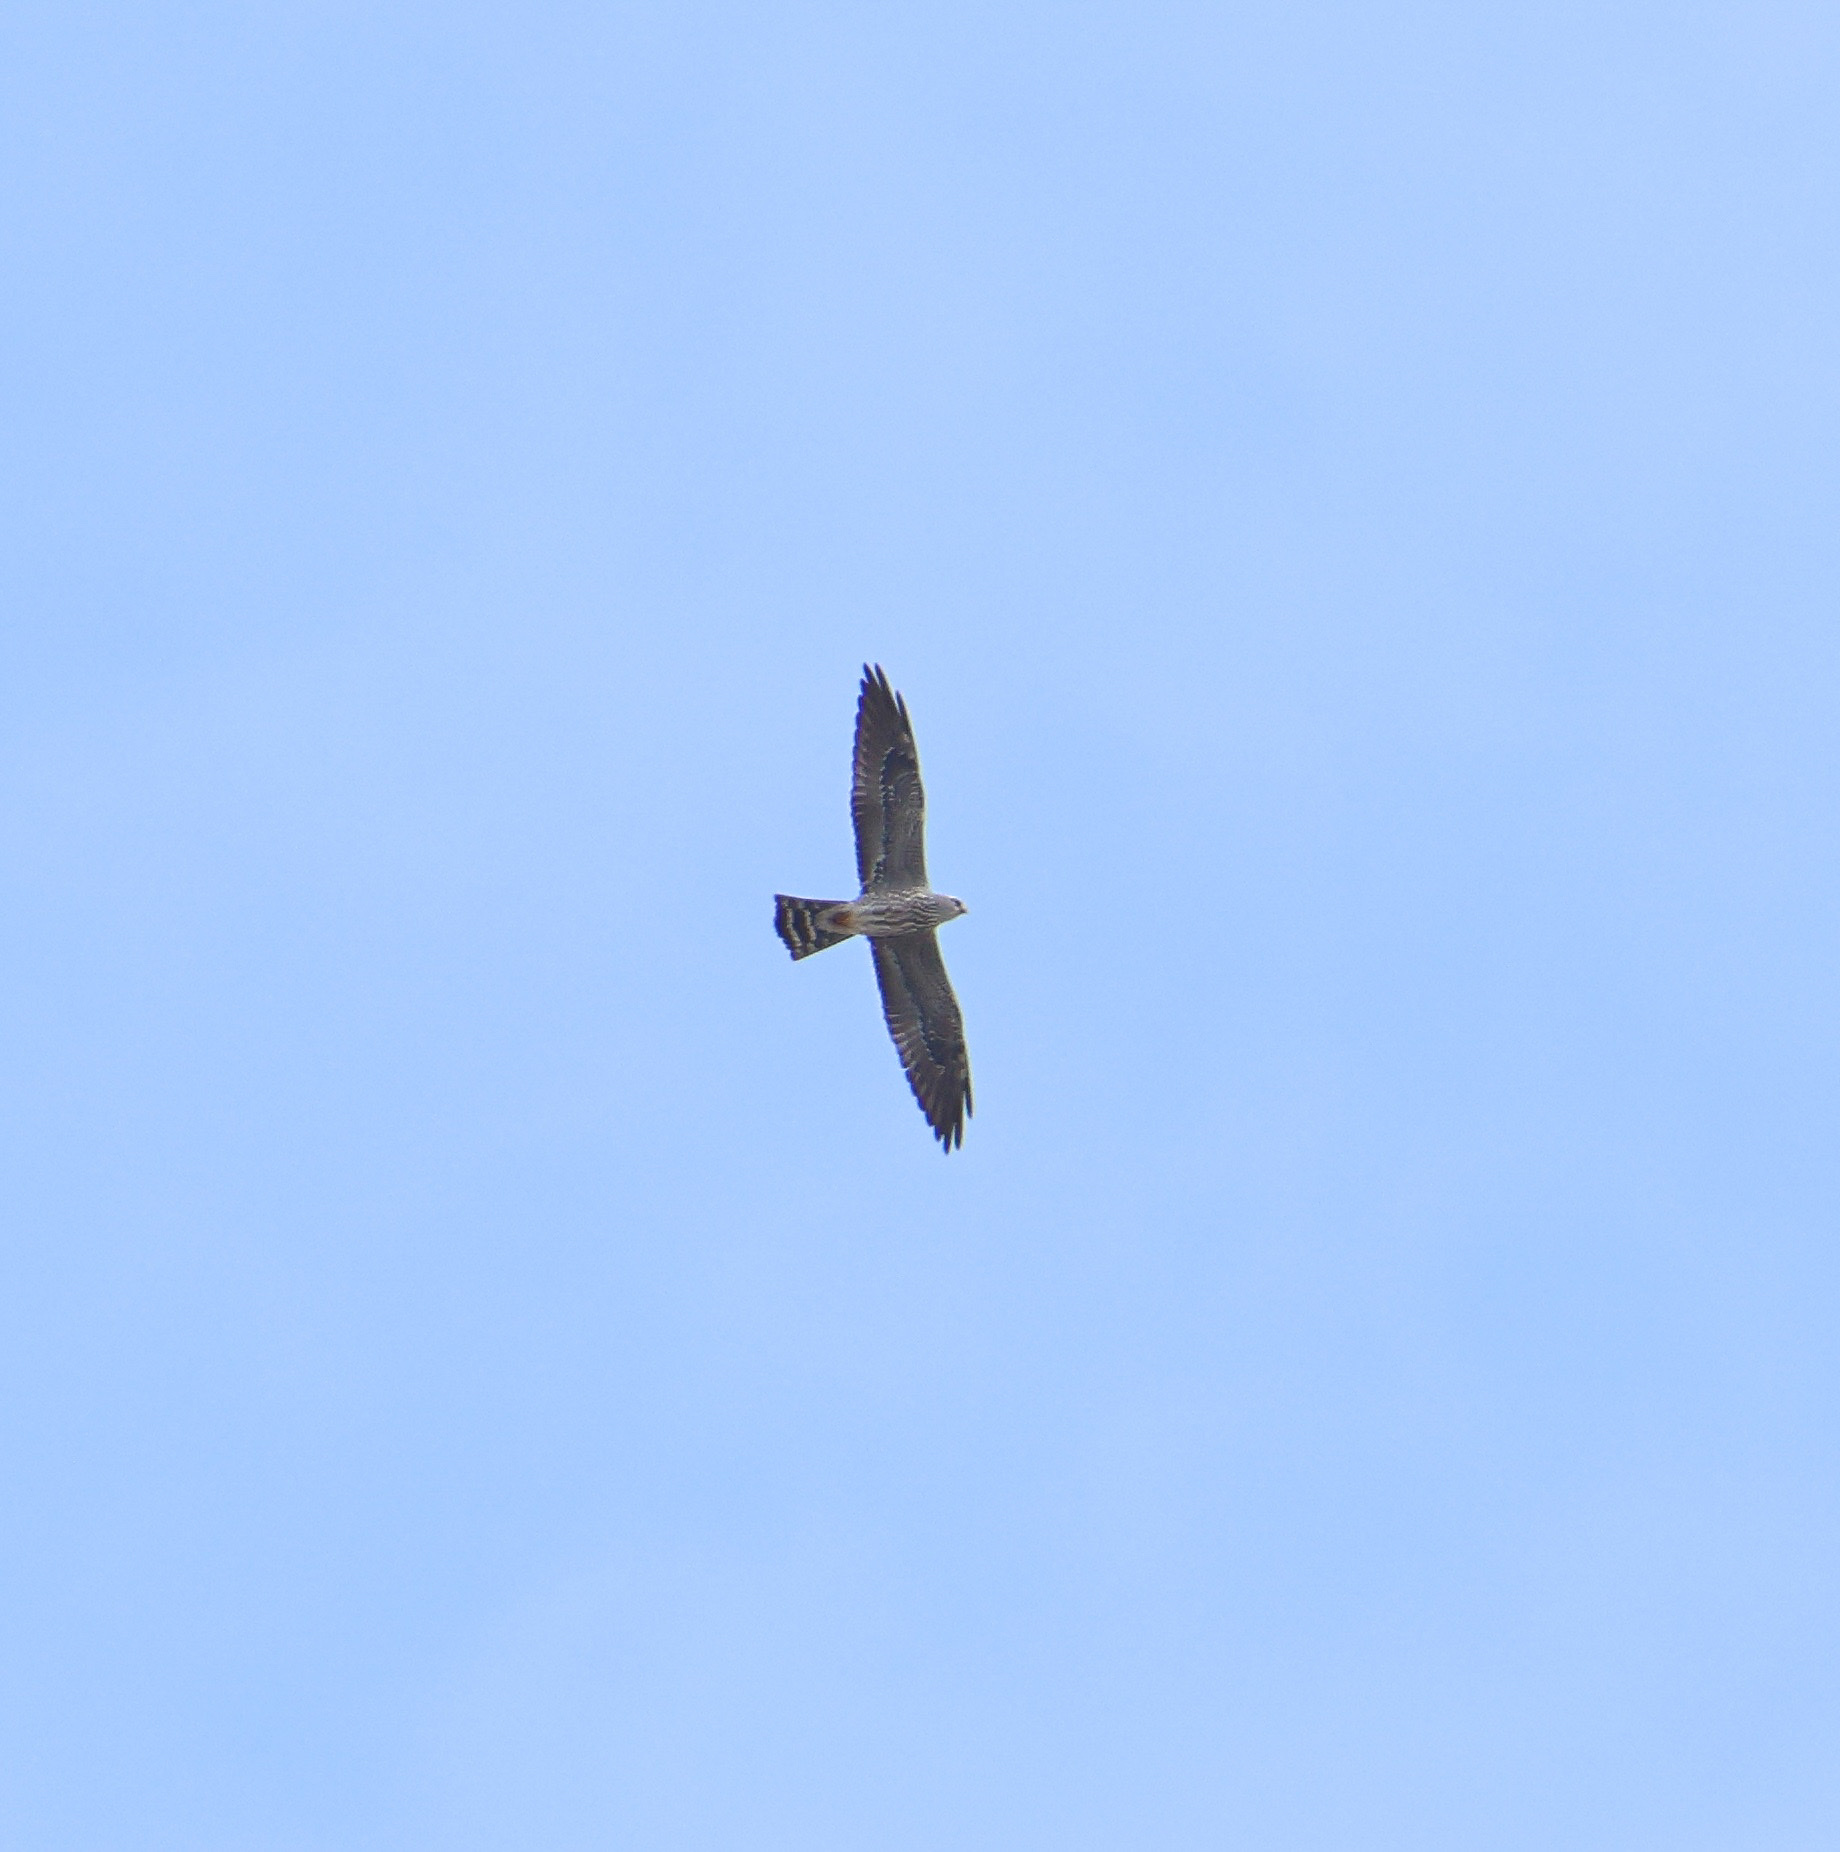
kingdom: Animalia
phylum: Chordata
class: Aves
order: Accipitriformes
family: Accipitridae
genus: Ictinia
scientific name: Ictinia mississippiensis
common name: Mississippi kite
